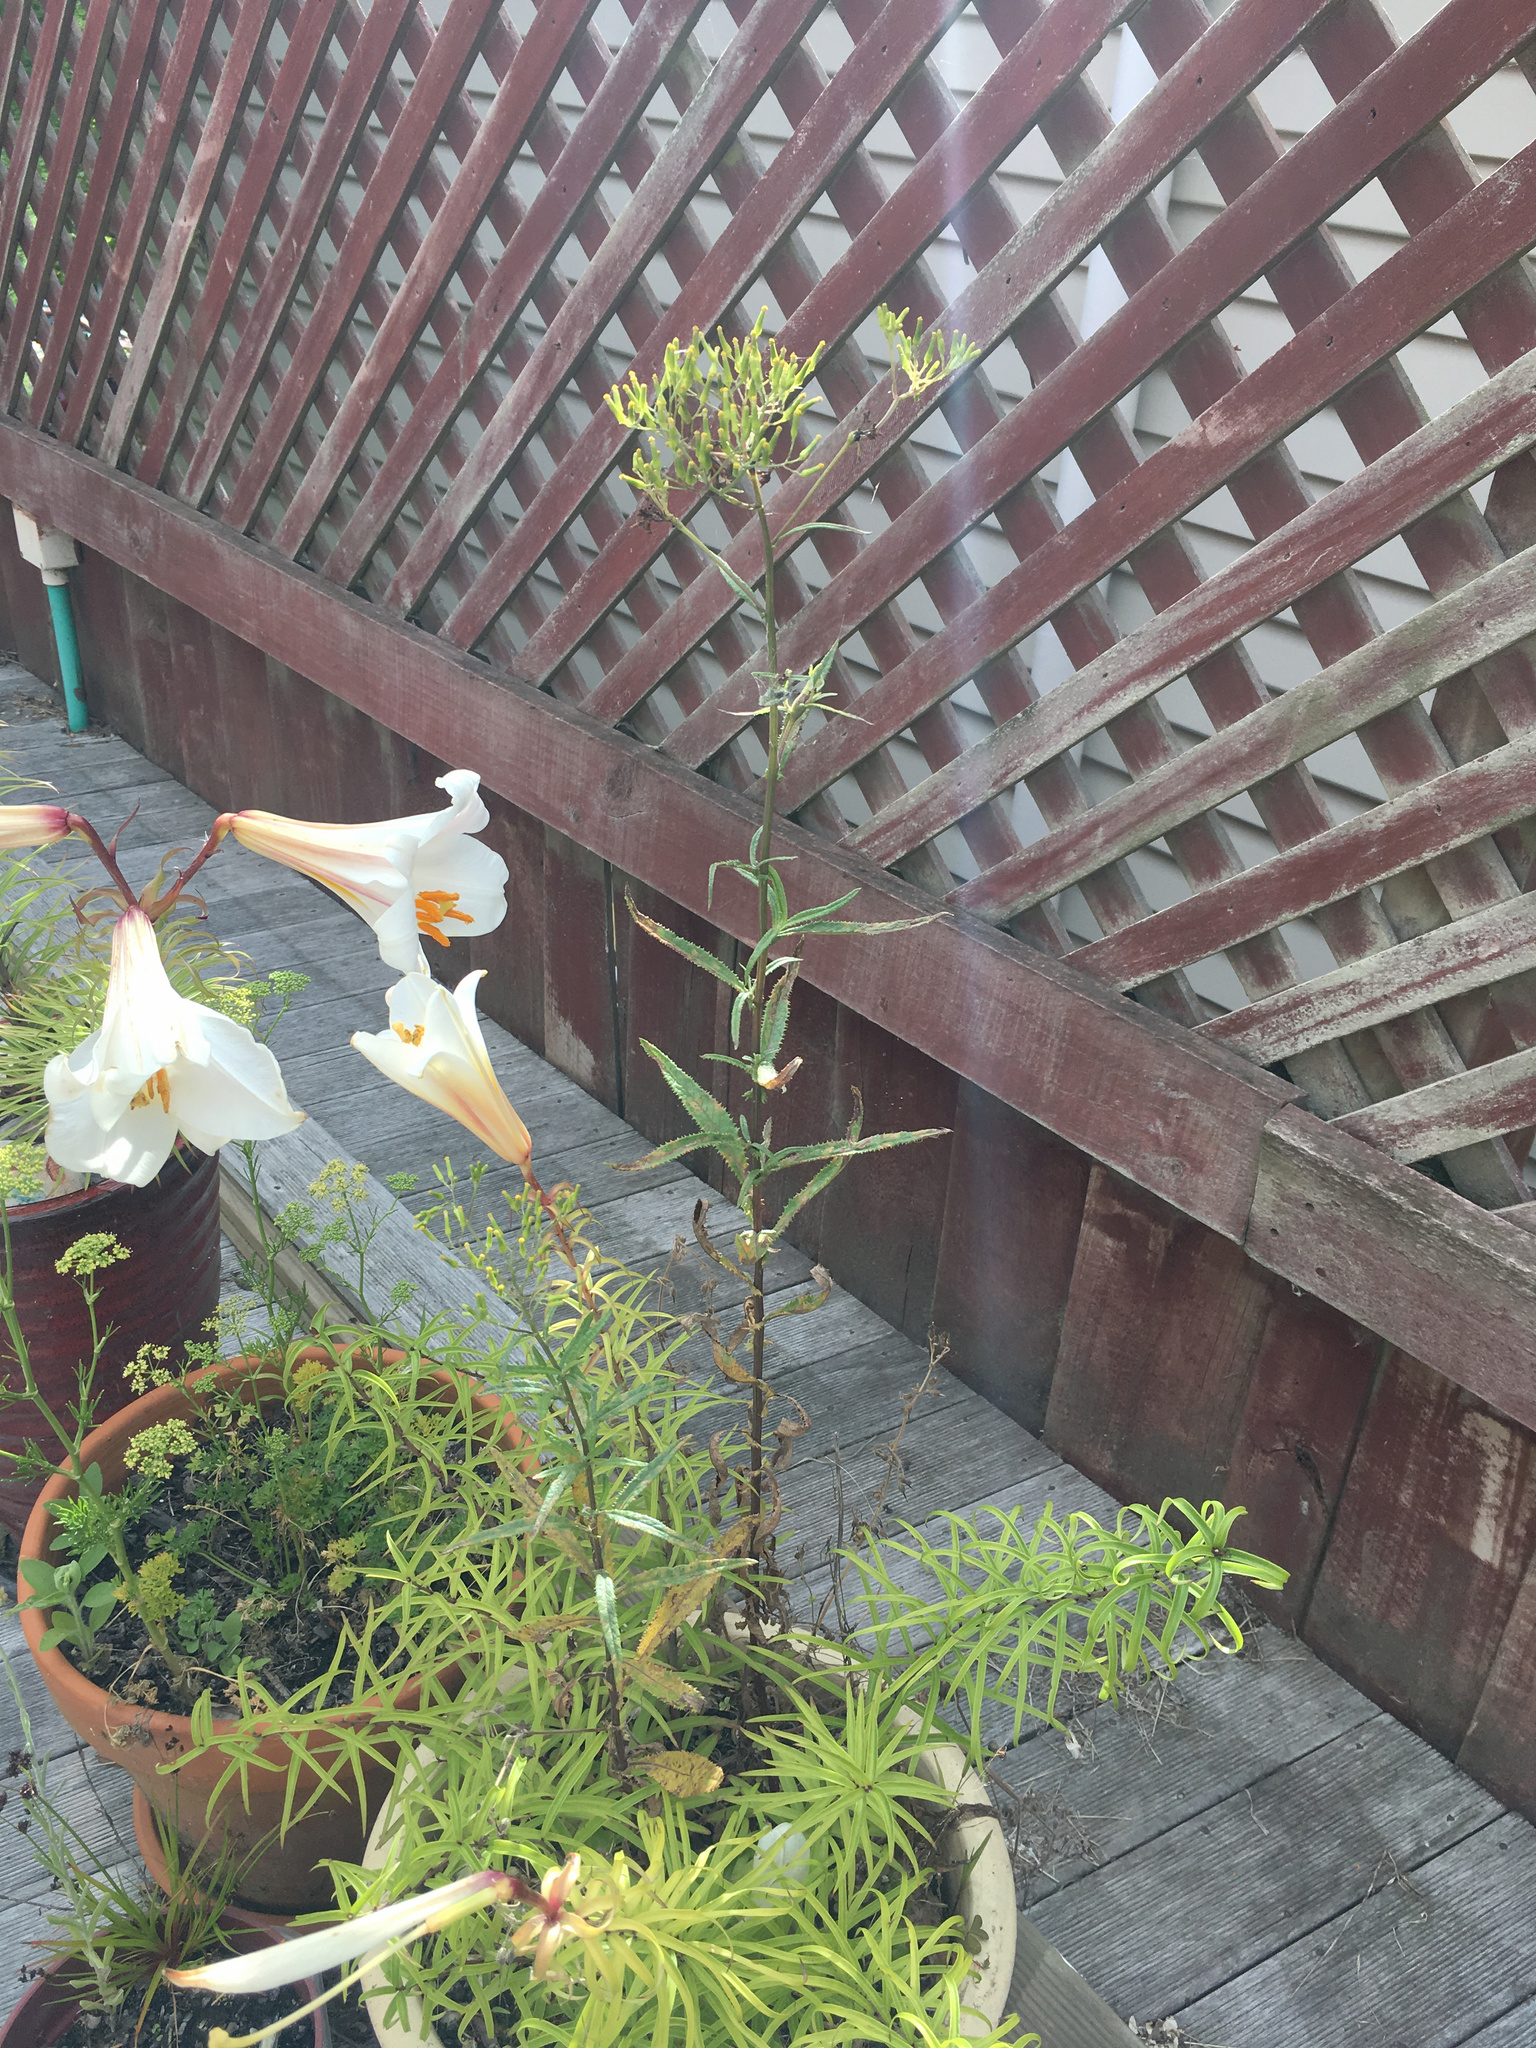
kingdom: Plantae
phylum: Tracheophyta
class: Magnoliopsida
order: Asterales
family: Asteraceae
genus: Senecio
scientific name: Senecio hispidulus
